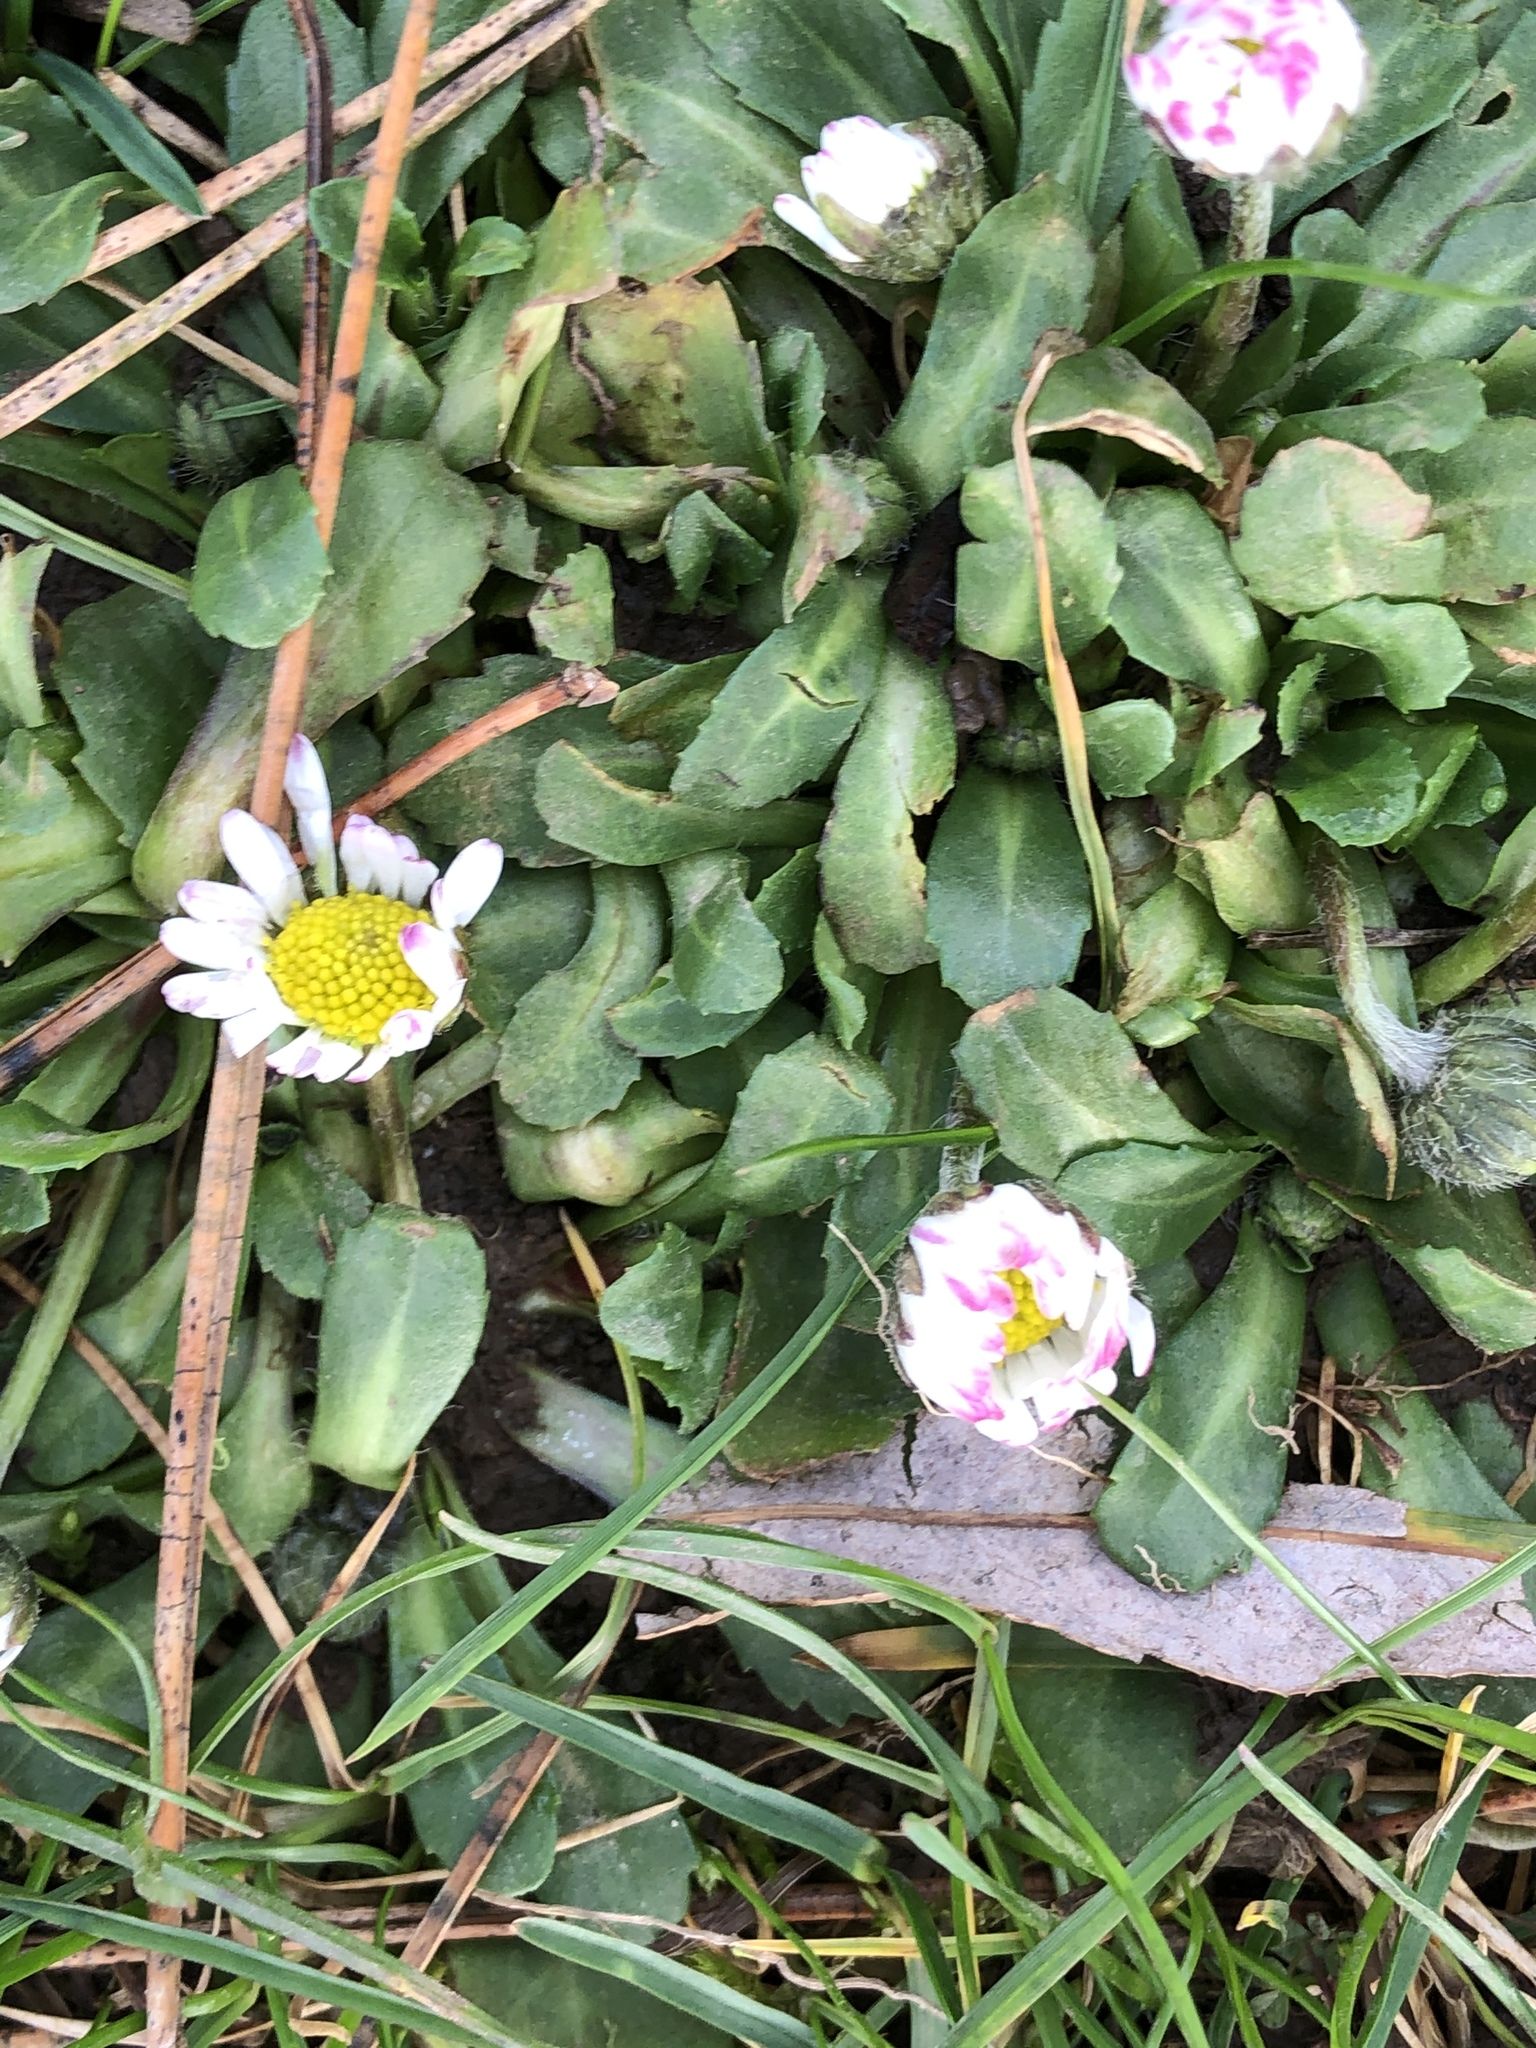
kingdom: Plantae
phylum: Tracheophyta
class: Magnoliopsida
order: Asterales
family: Asteraceae
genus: Bellis
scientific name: Bellis perennis
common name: Lawndaisy
